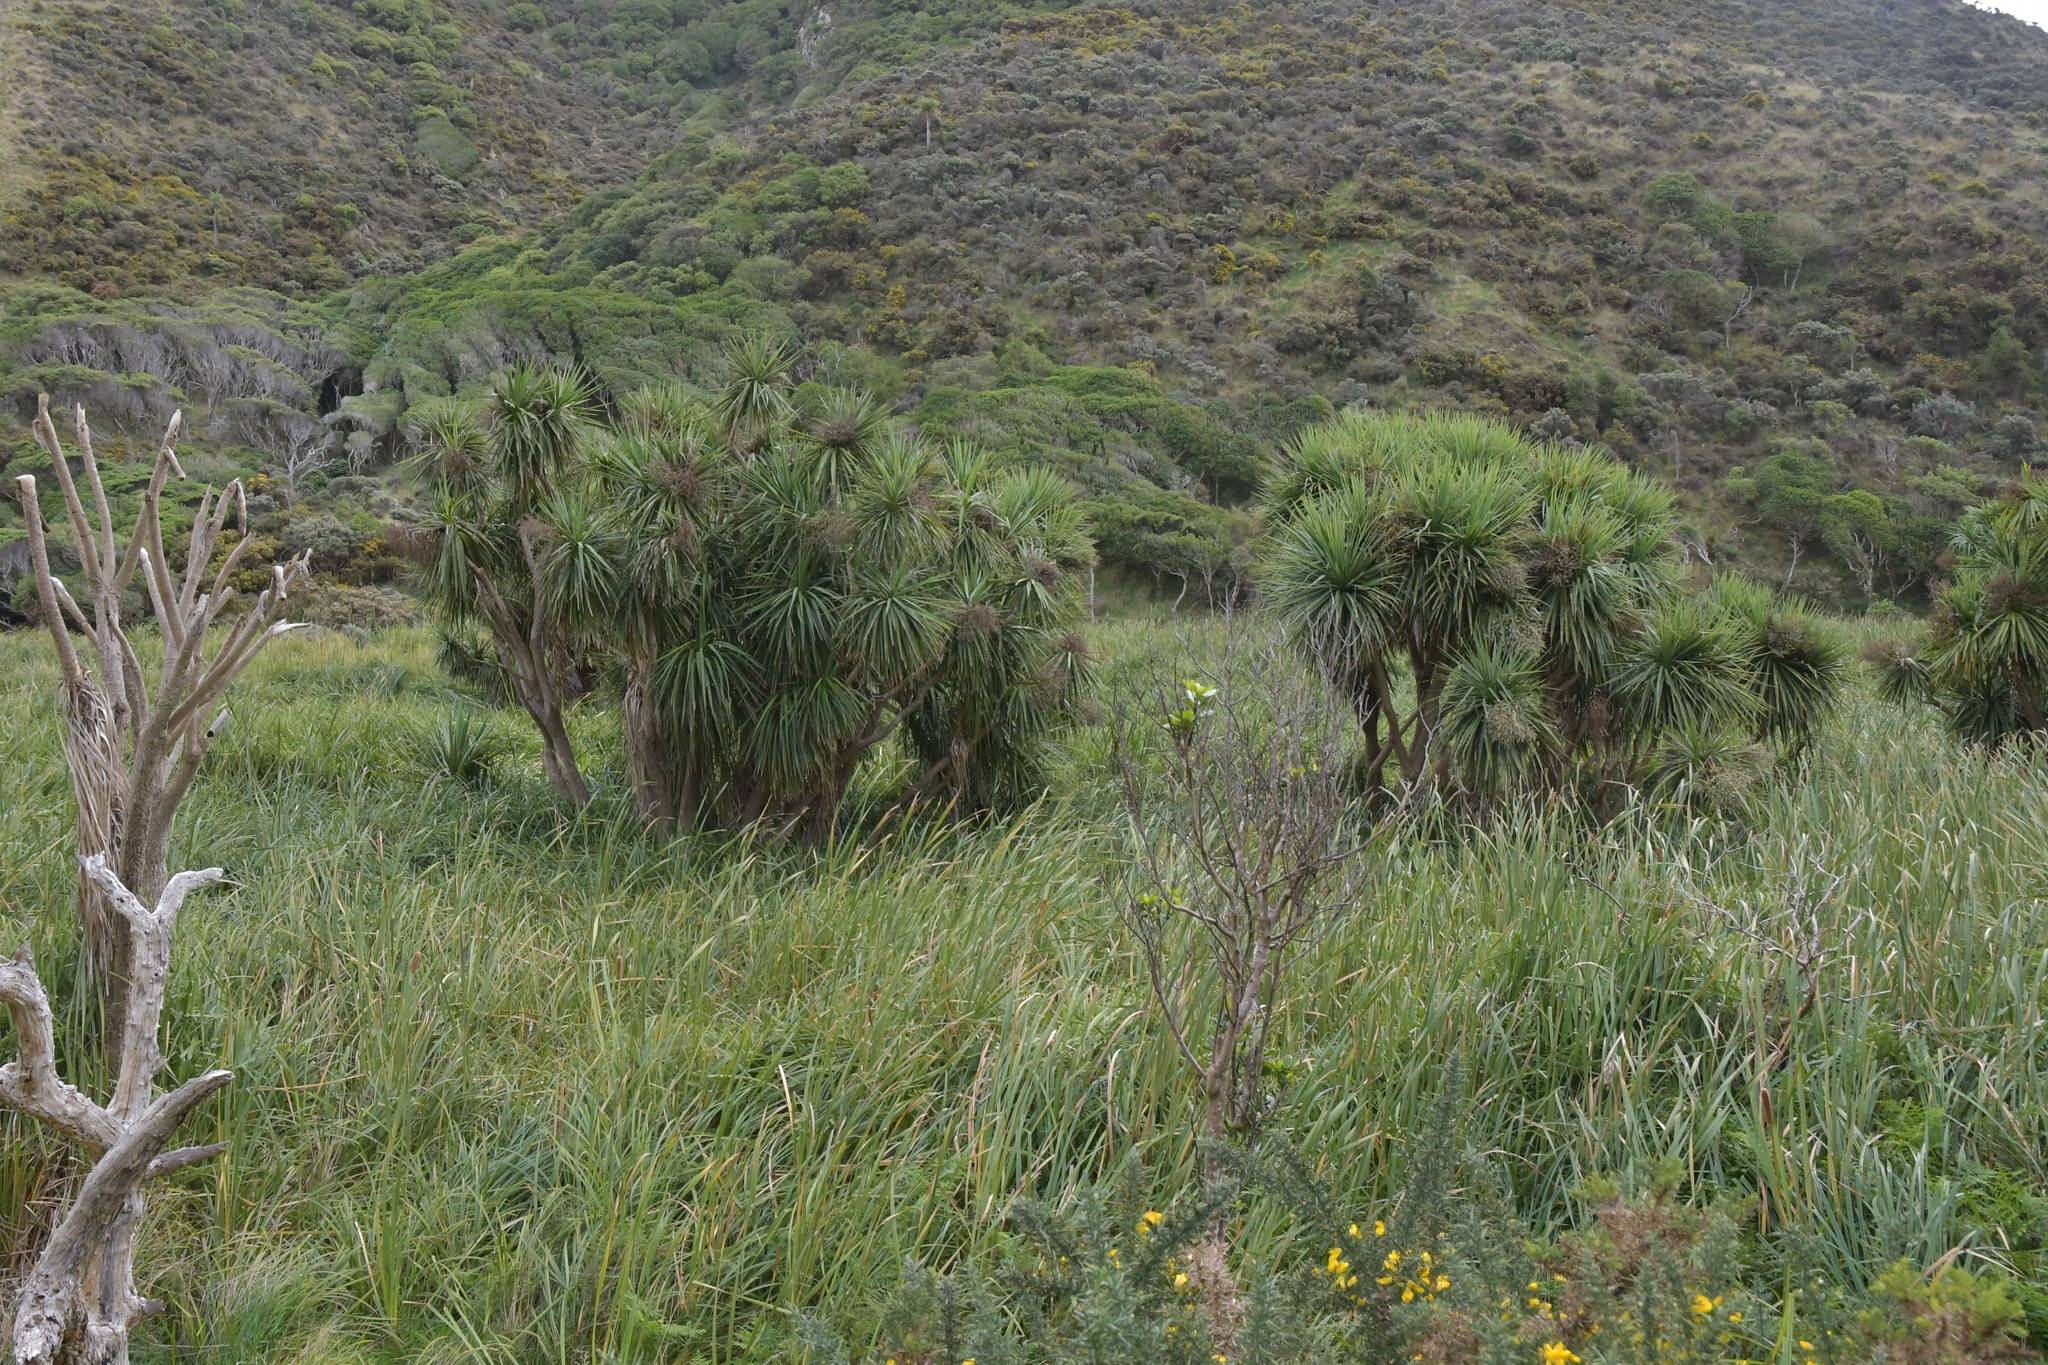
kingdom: Plantae
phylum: Tracheophyta
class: Liliopsida
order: Asparagales
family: Asparagaceae
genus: Cordyline
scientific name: Cordyline australis
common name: Cabbage-palm
